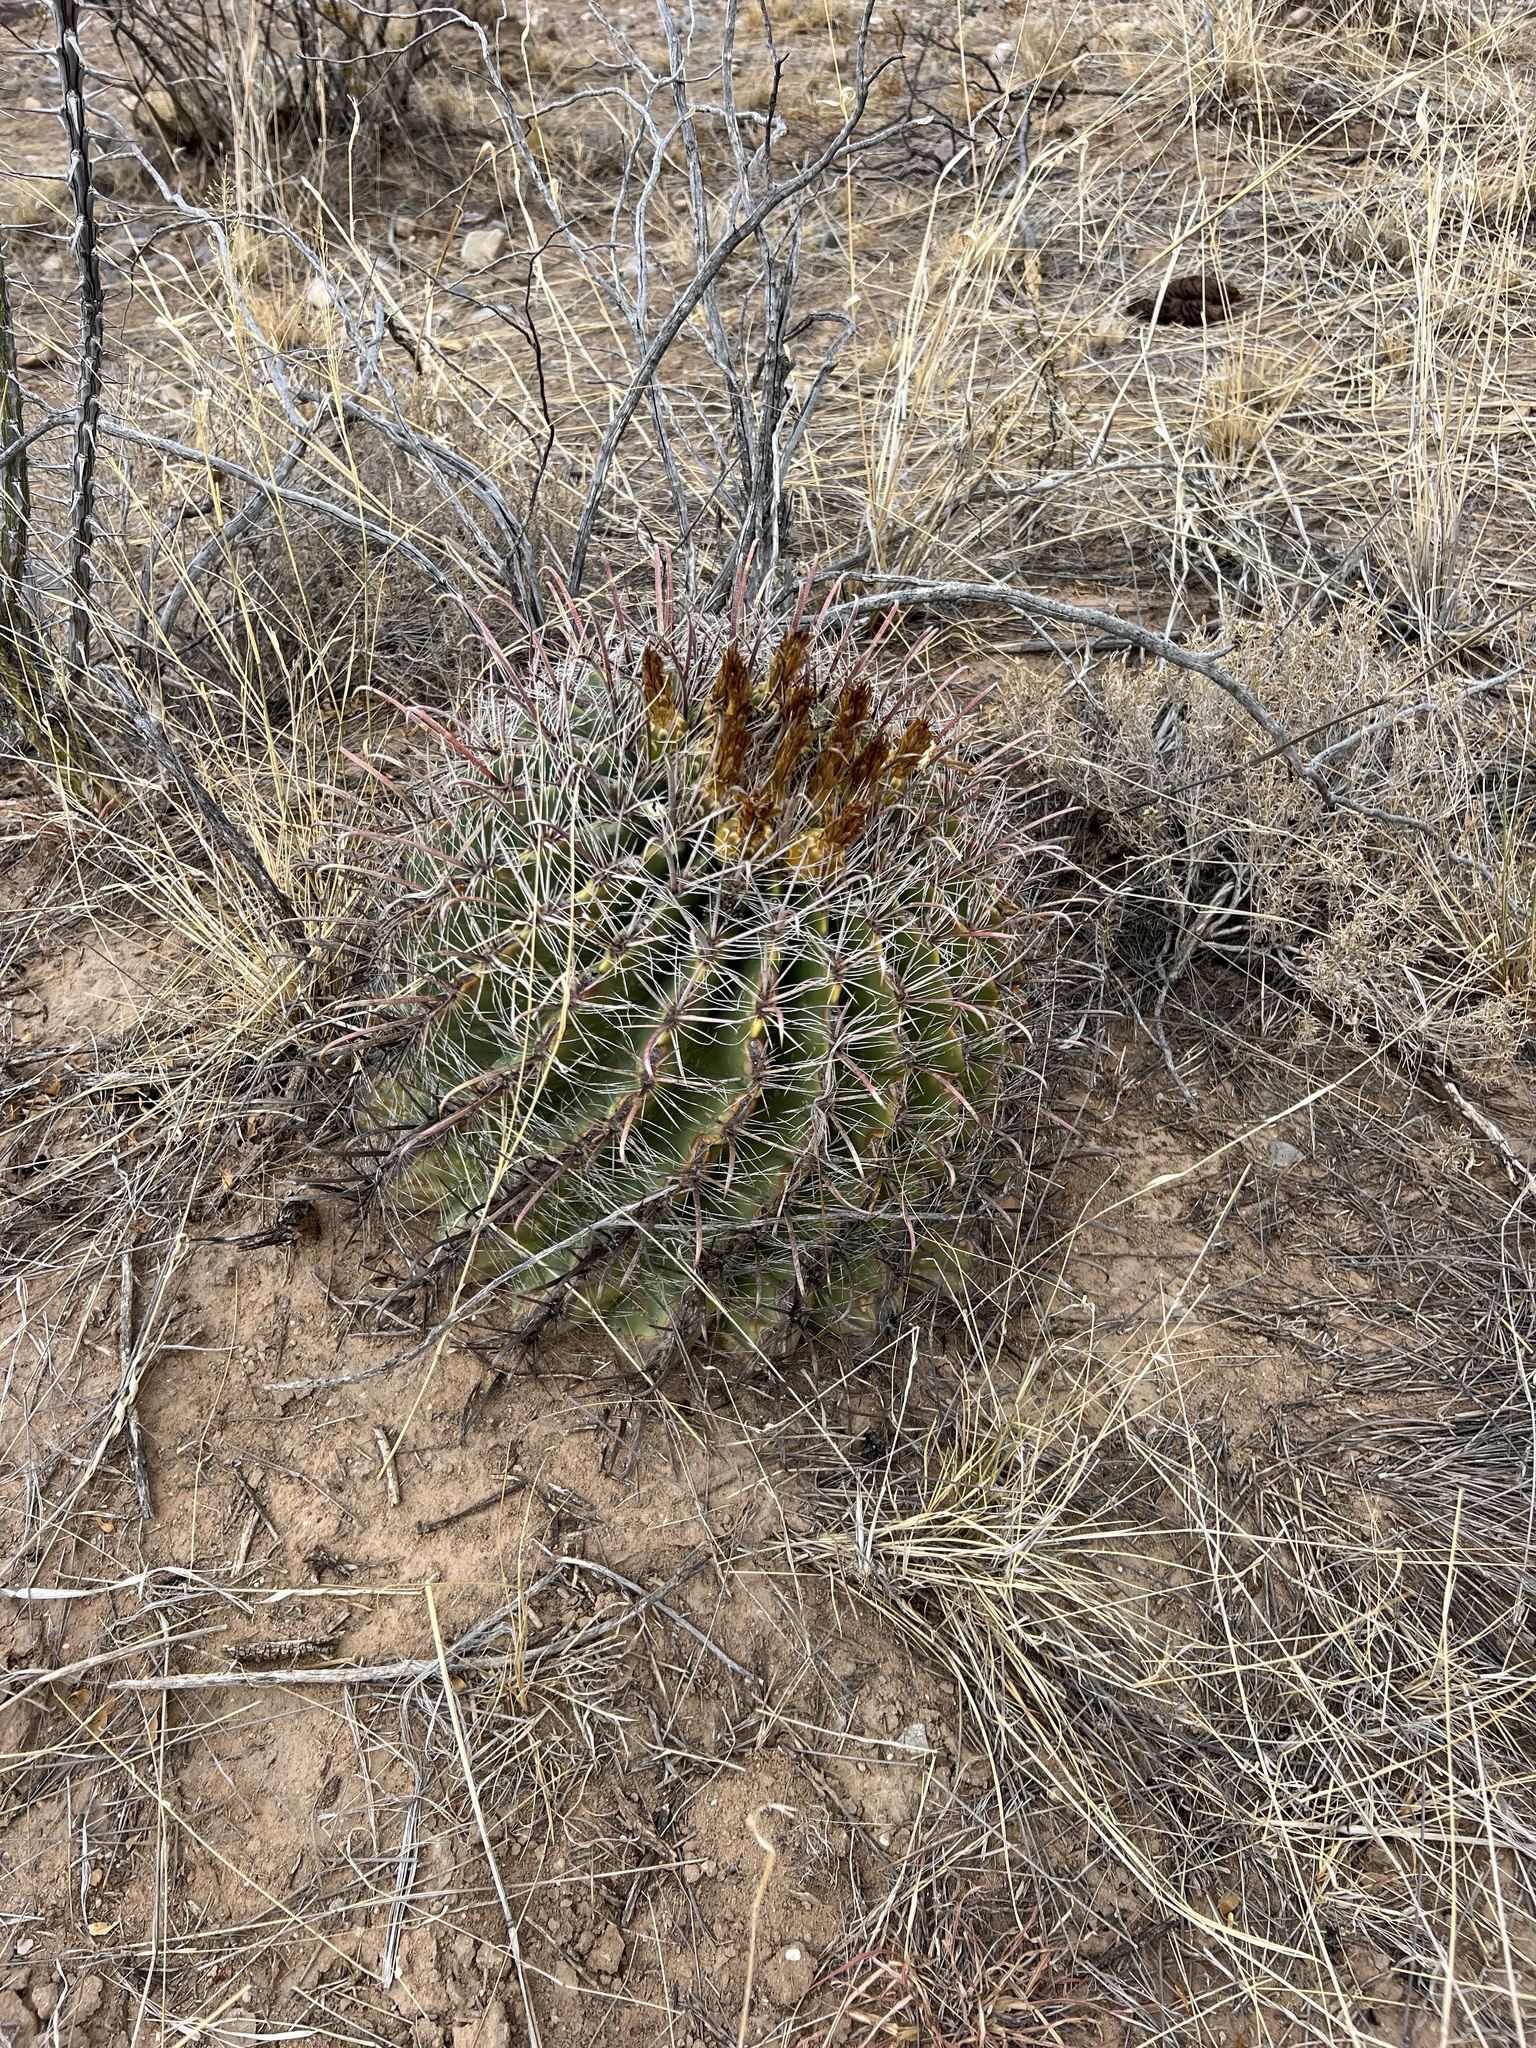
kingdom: Plantae
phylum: Tracheophyta
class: Magnoliopsida
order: Caryophyllales
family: Cactaceae
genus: Ferocactus
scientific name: Ferocactus wislizeni
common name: Candy barrel cactus
